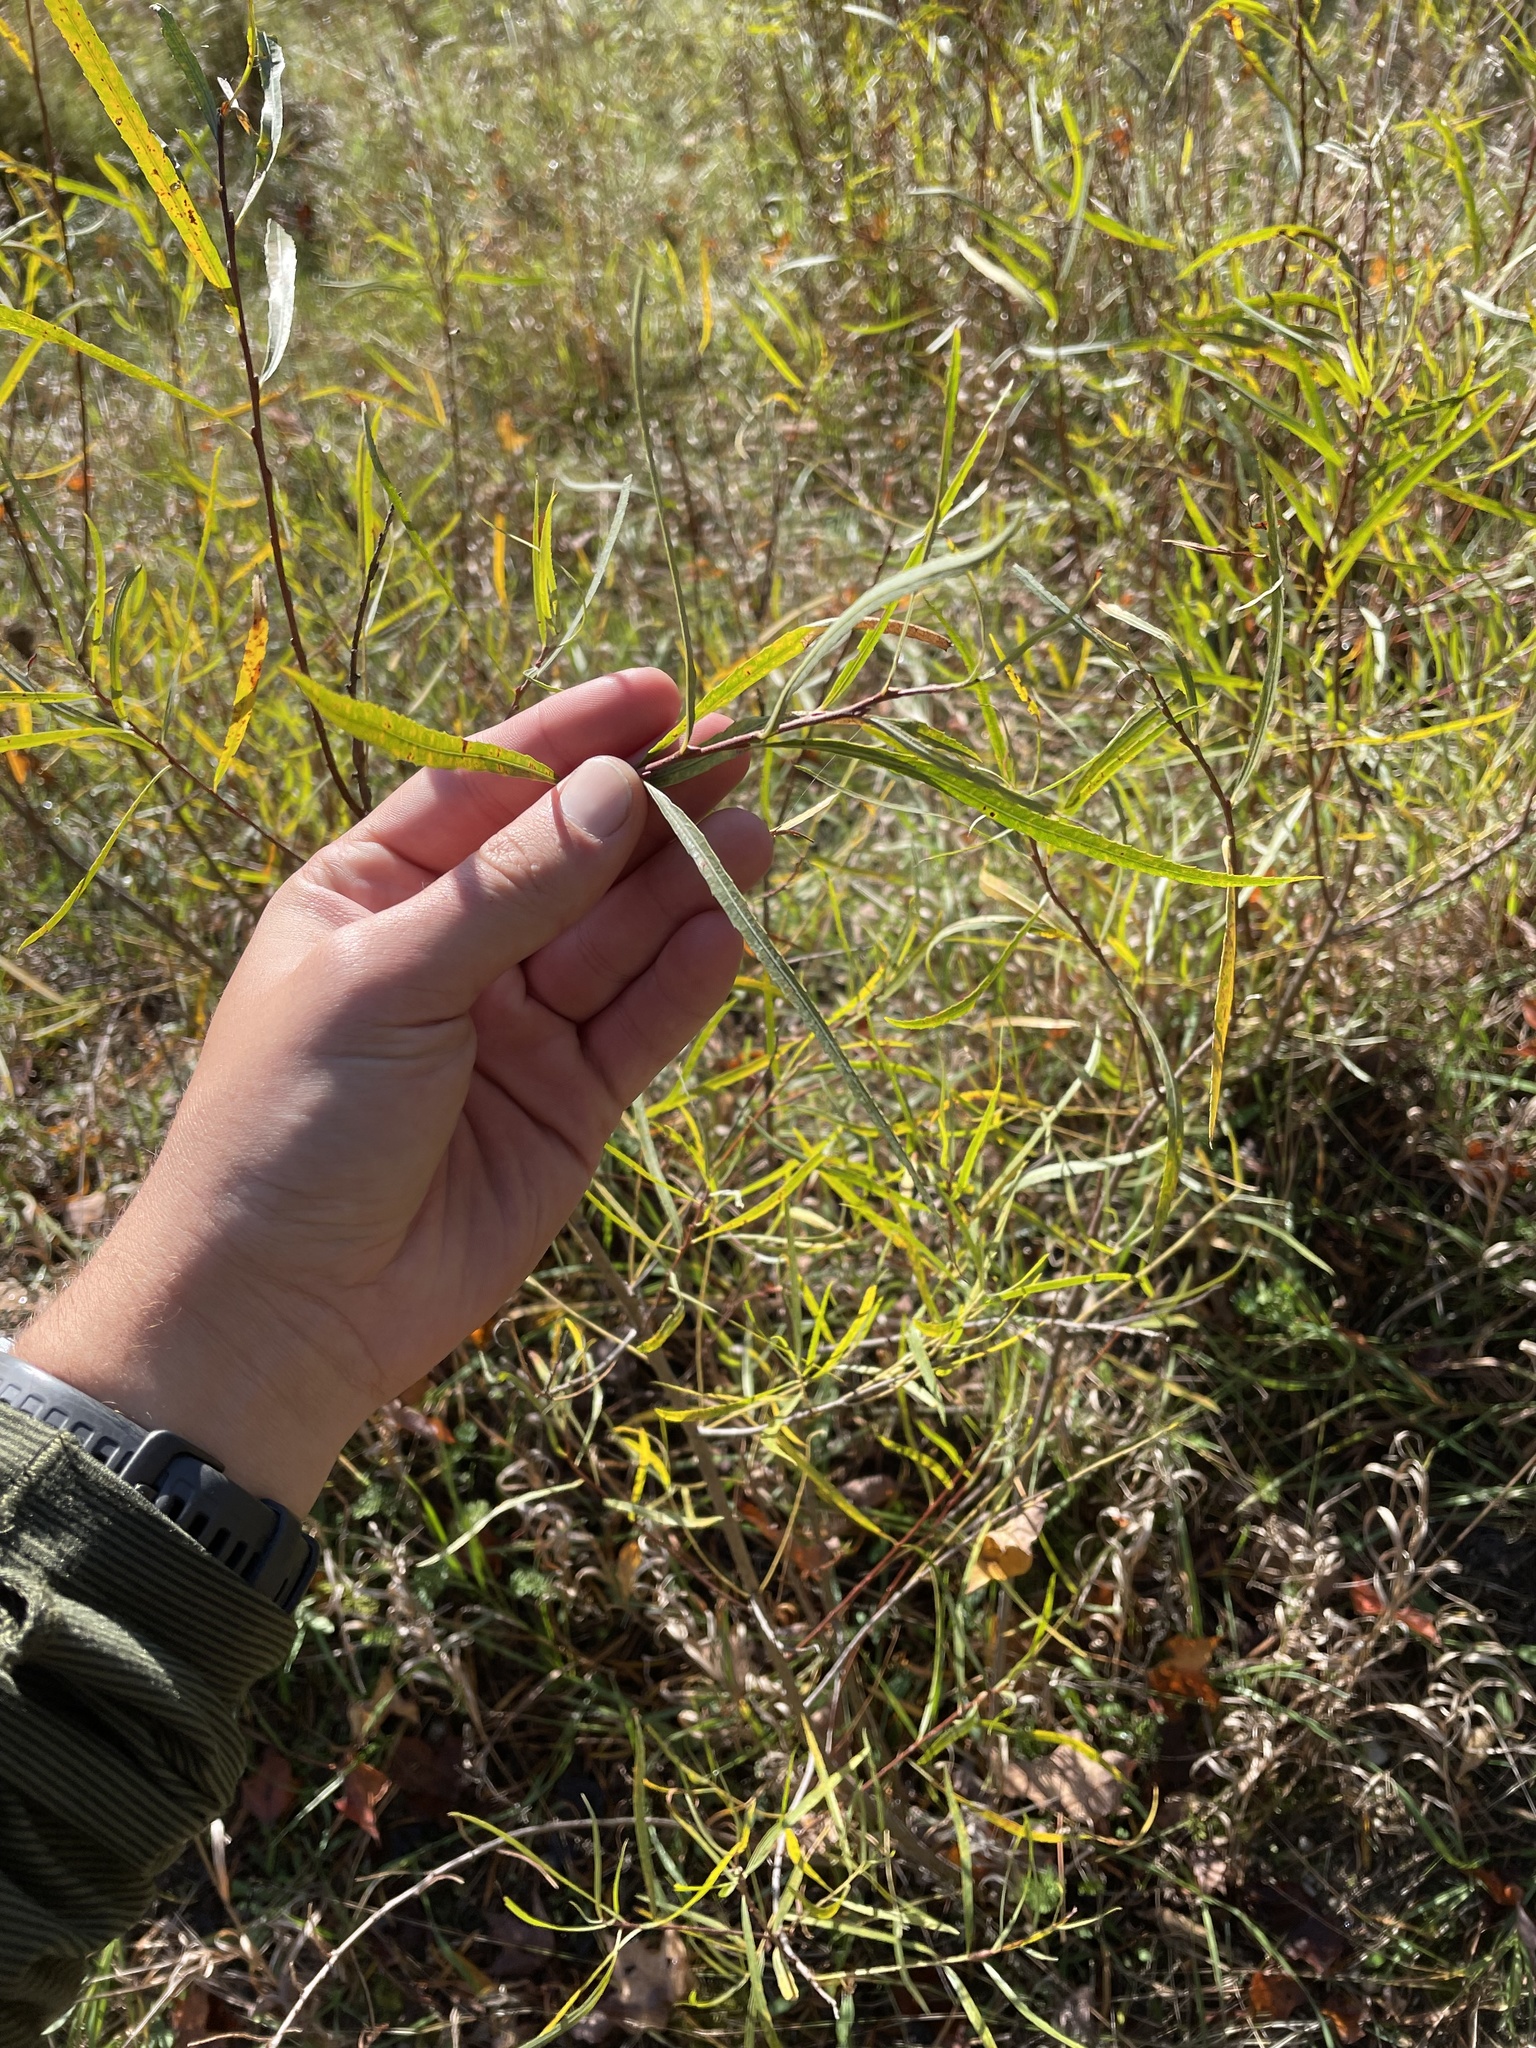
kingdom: Plantae
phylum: Tracheophyta
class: Magnoliopsida
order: Malpighiales
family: Salicaceae
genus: Salix
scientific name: Salix interior
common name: Sandbar willow
